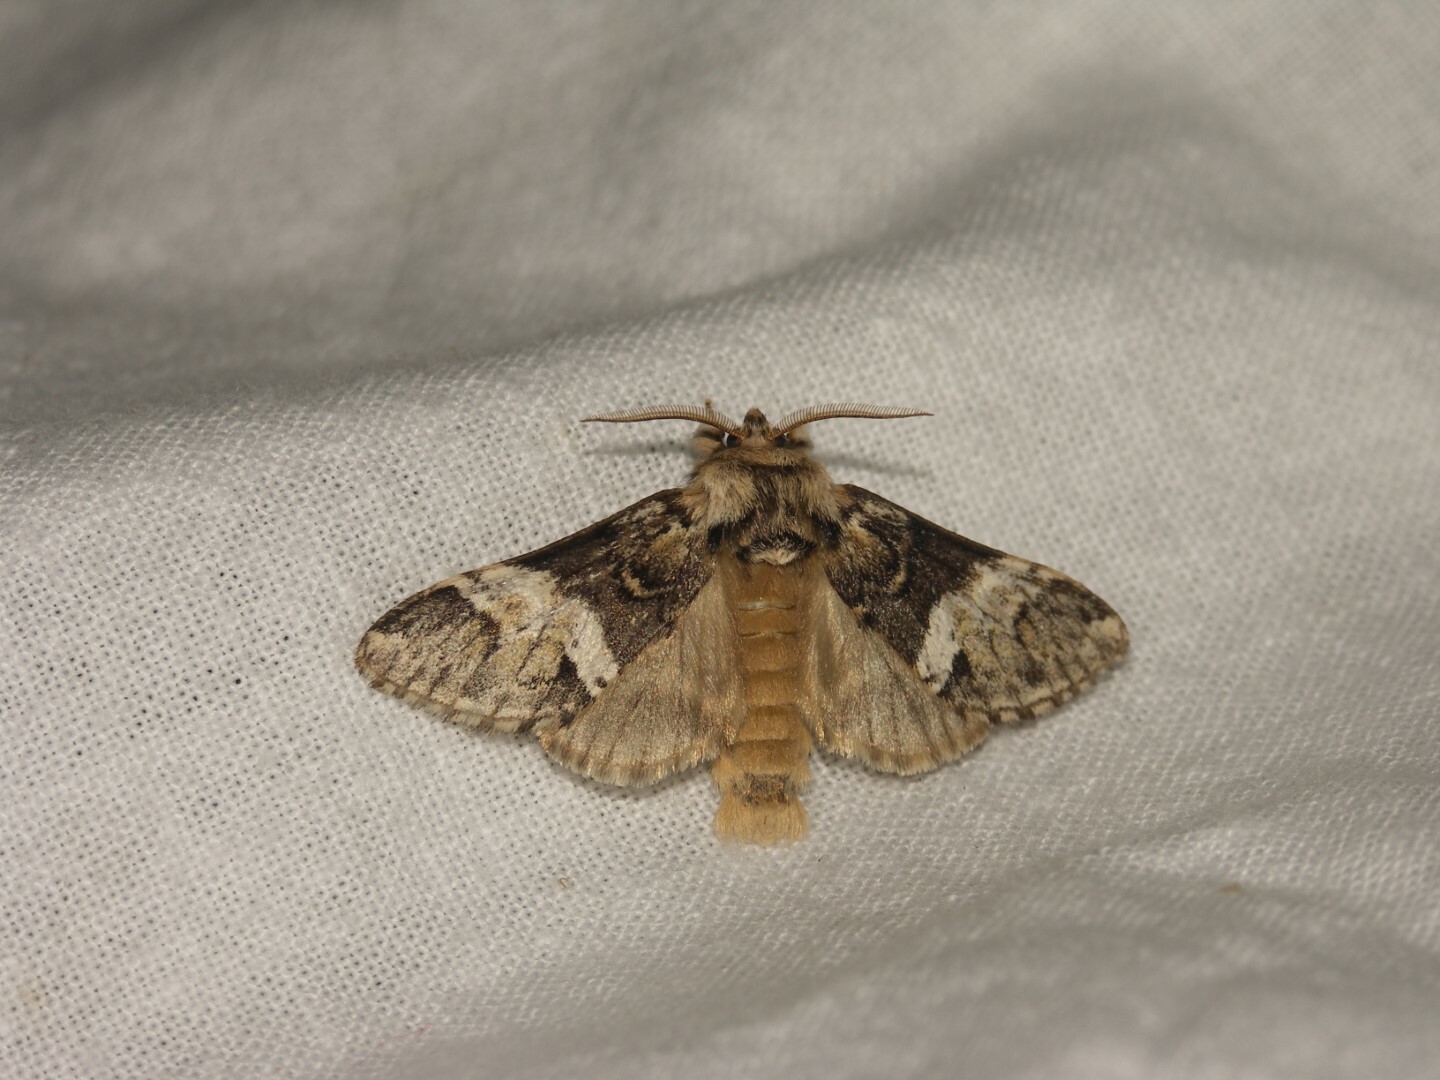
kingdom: Animalia
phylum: Arthropoda
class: Insecta
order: Lepidoptera
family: Notodontidae
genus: Drymonia
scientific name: Drymonia dodonaea
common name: Marbled brown
